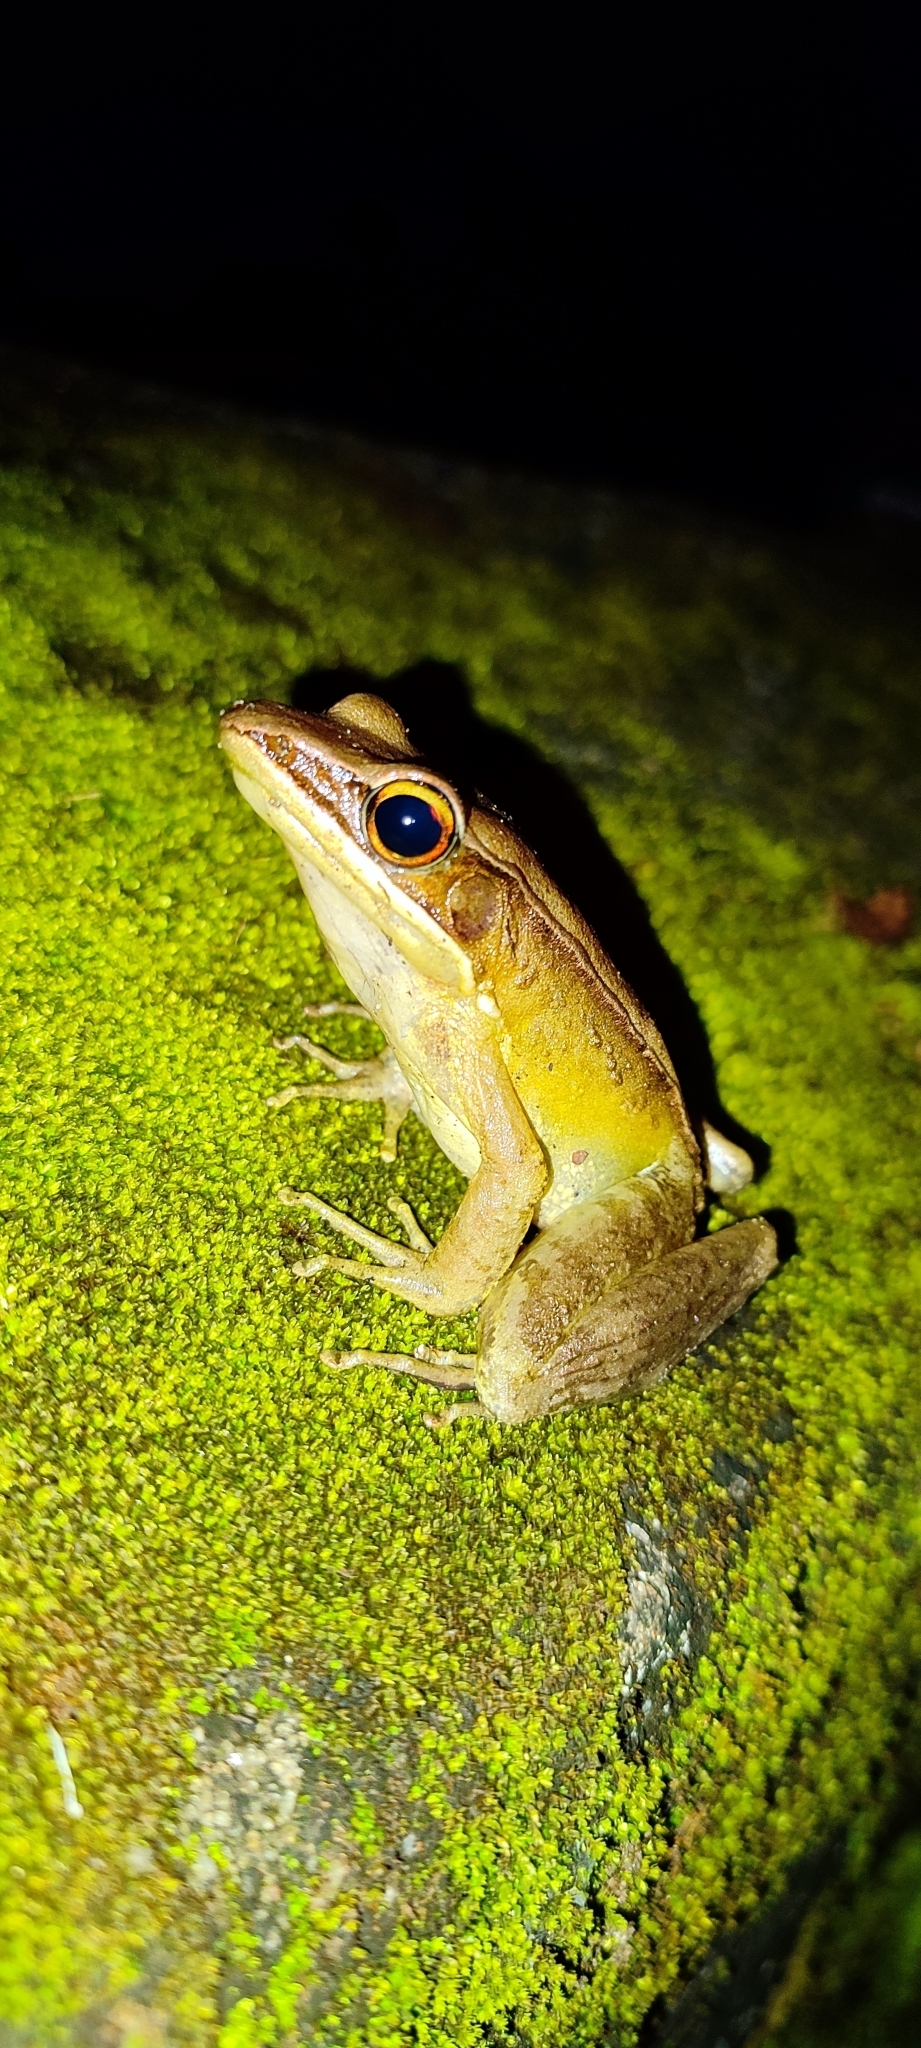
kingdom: Animalia
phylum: Chordata
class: Amphibia
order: Anura
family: Ranidae
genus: Indosylvirana
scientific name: Indosylvirana sreeni
